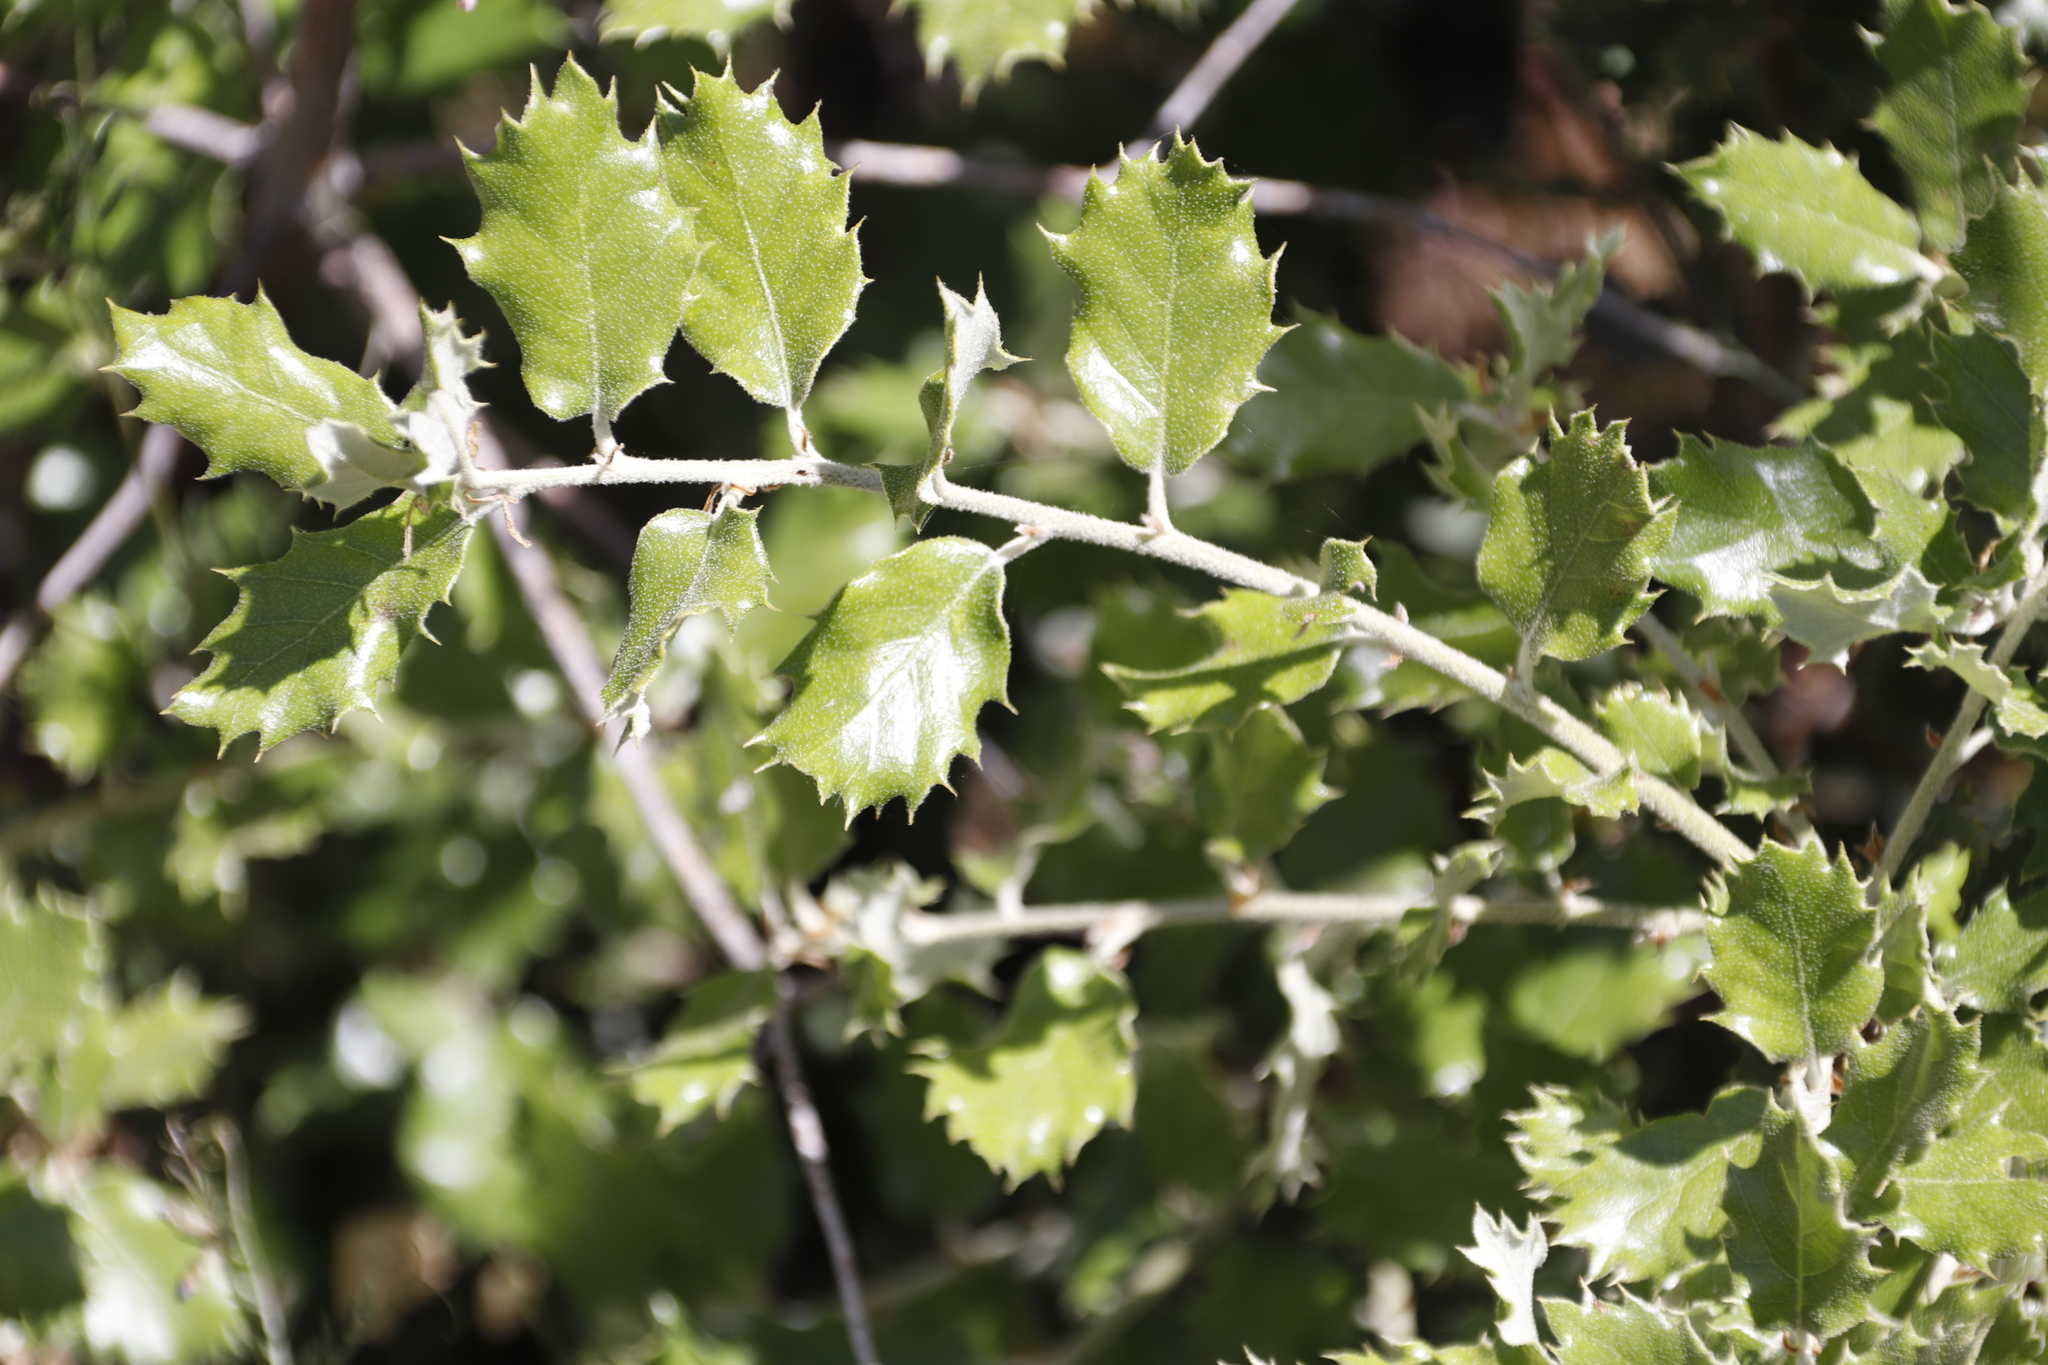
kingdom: Plantae
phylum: Tracheophyta
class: Magnoliopsida
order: Fagales
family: Fagaceae
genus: Quercus
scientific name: Quercus suber
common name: Cork oak
